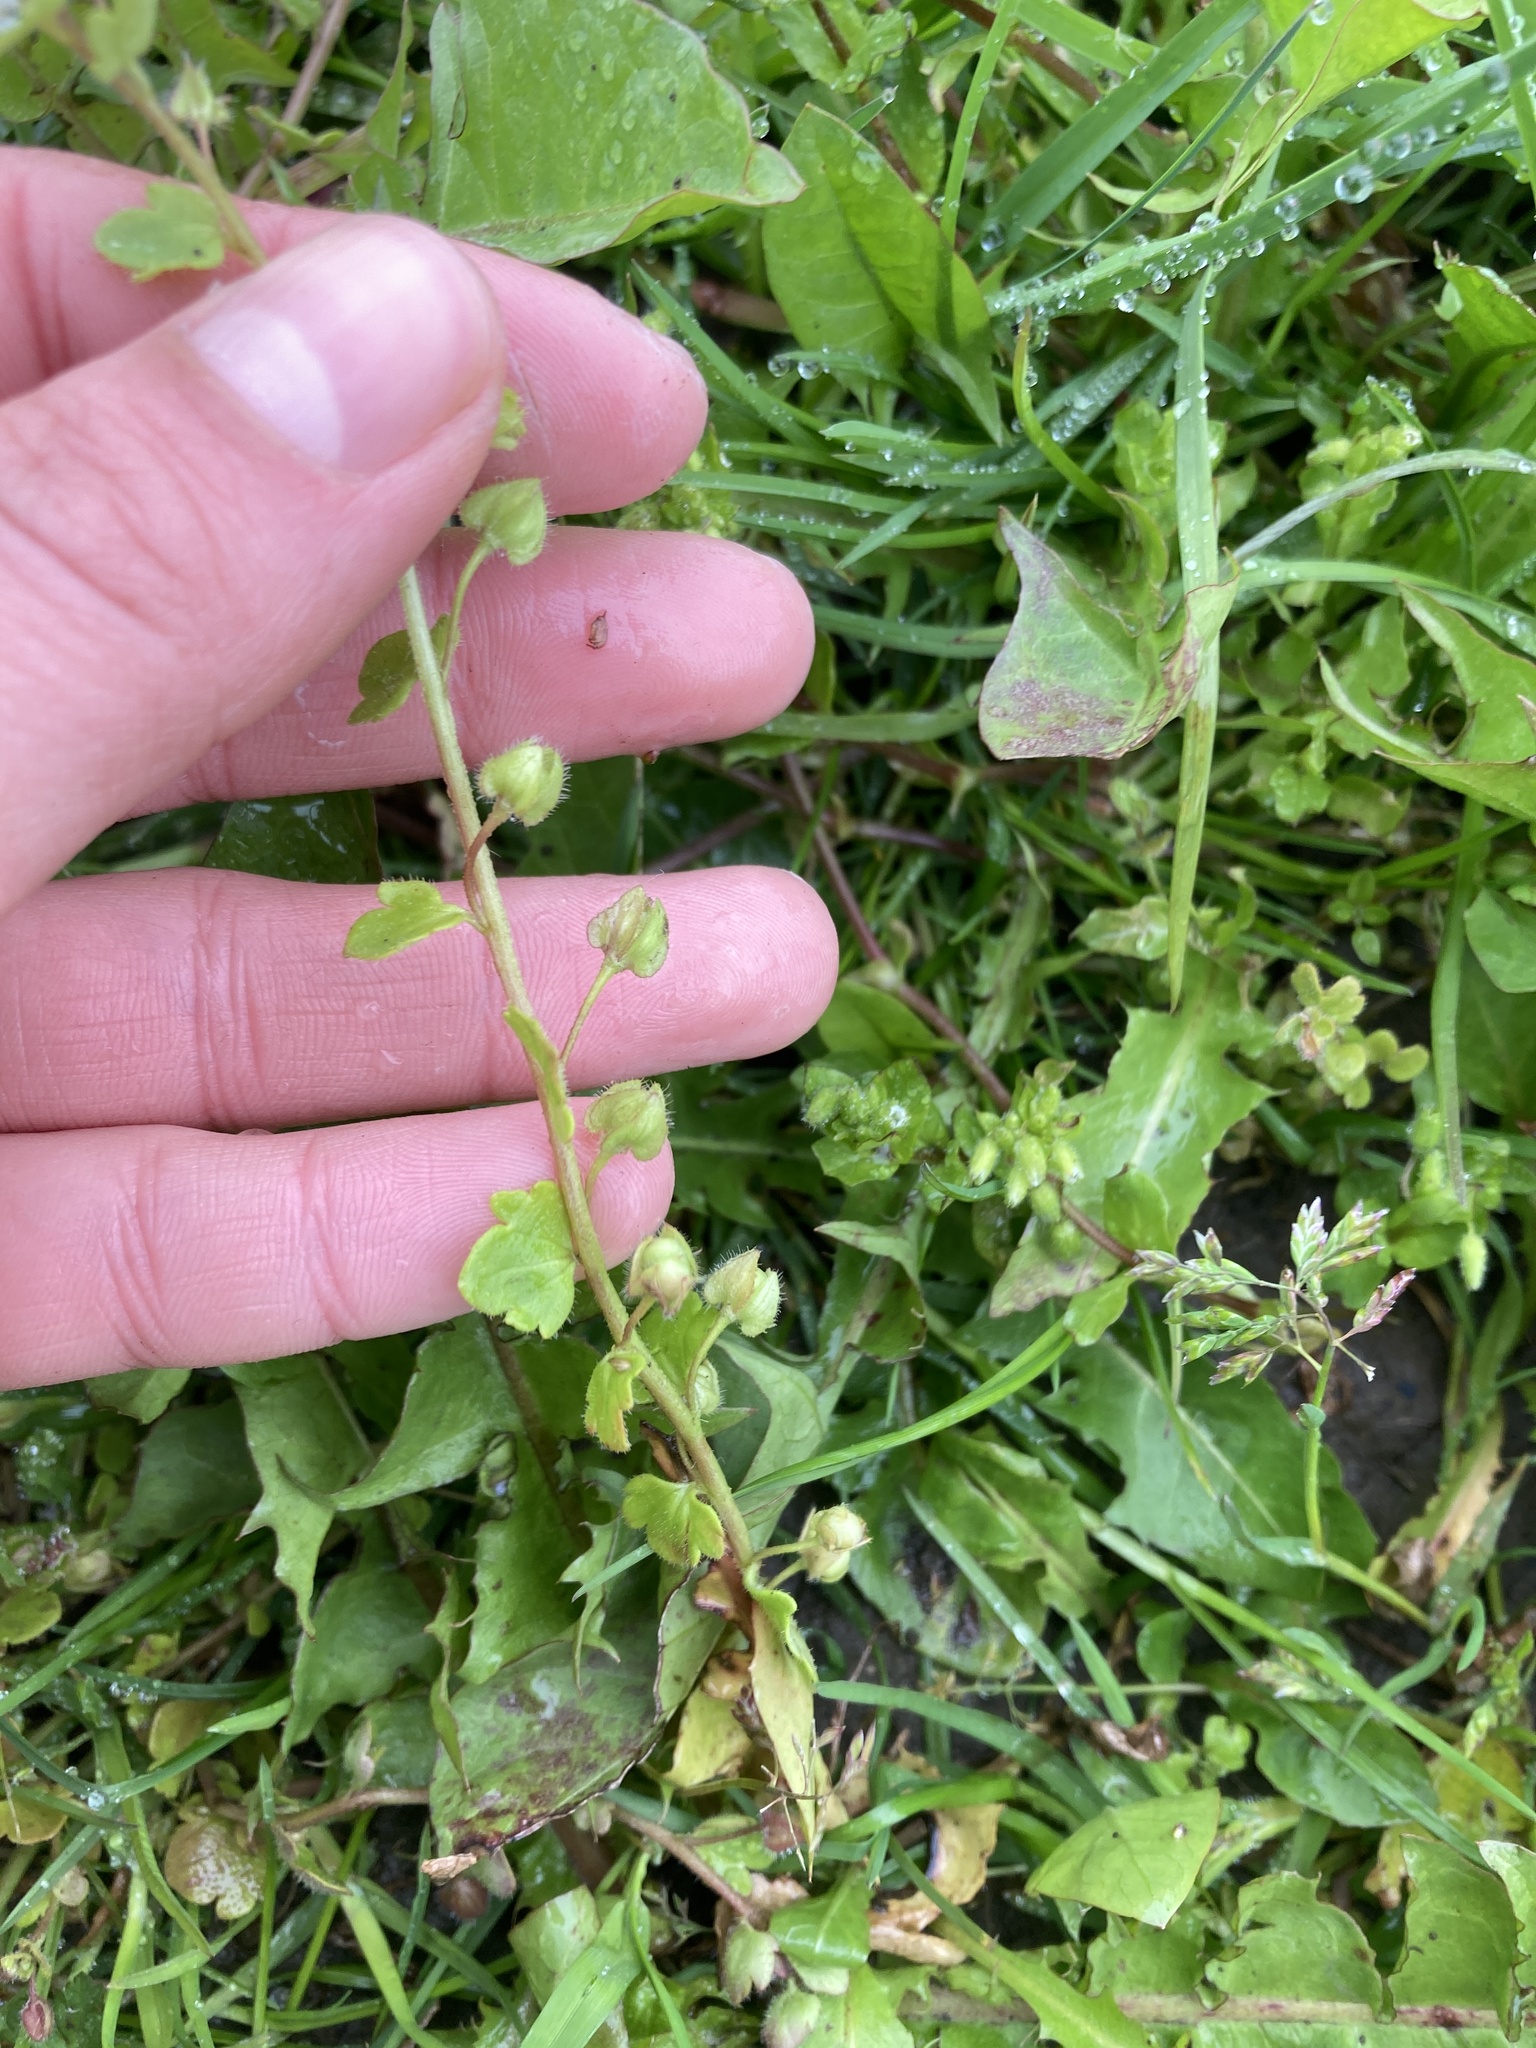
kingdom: Plantae
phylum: Tracheophyta
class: Magnoliopsida
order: Lamiales
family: Plantaginaceae
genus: Veronica
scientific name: Veronica hederifolia
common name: Ivy-leaved speedwell
